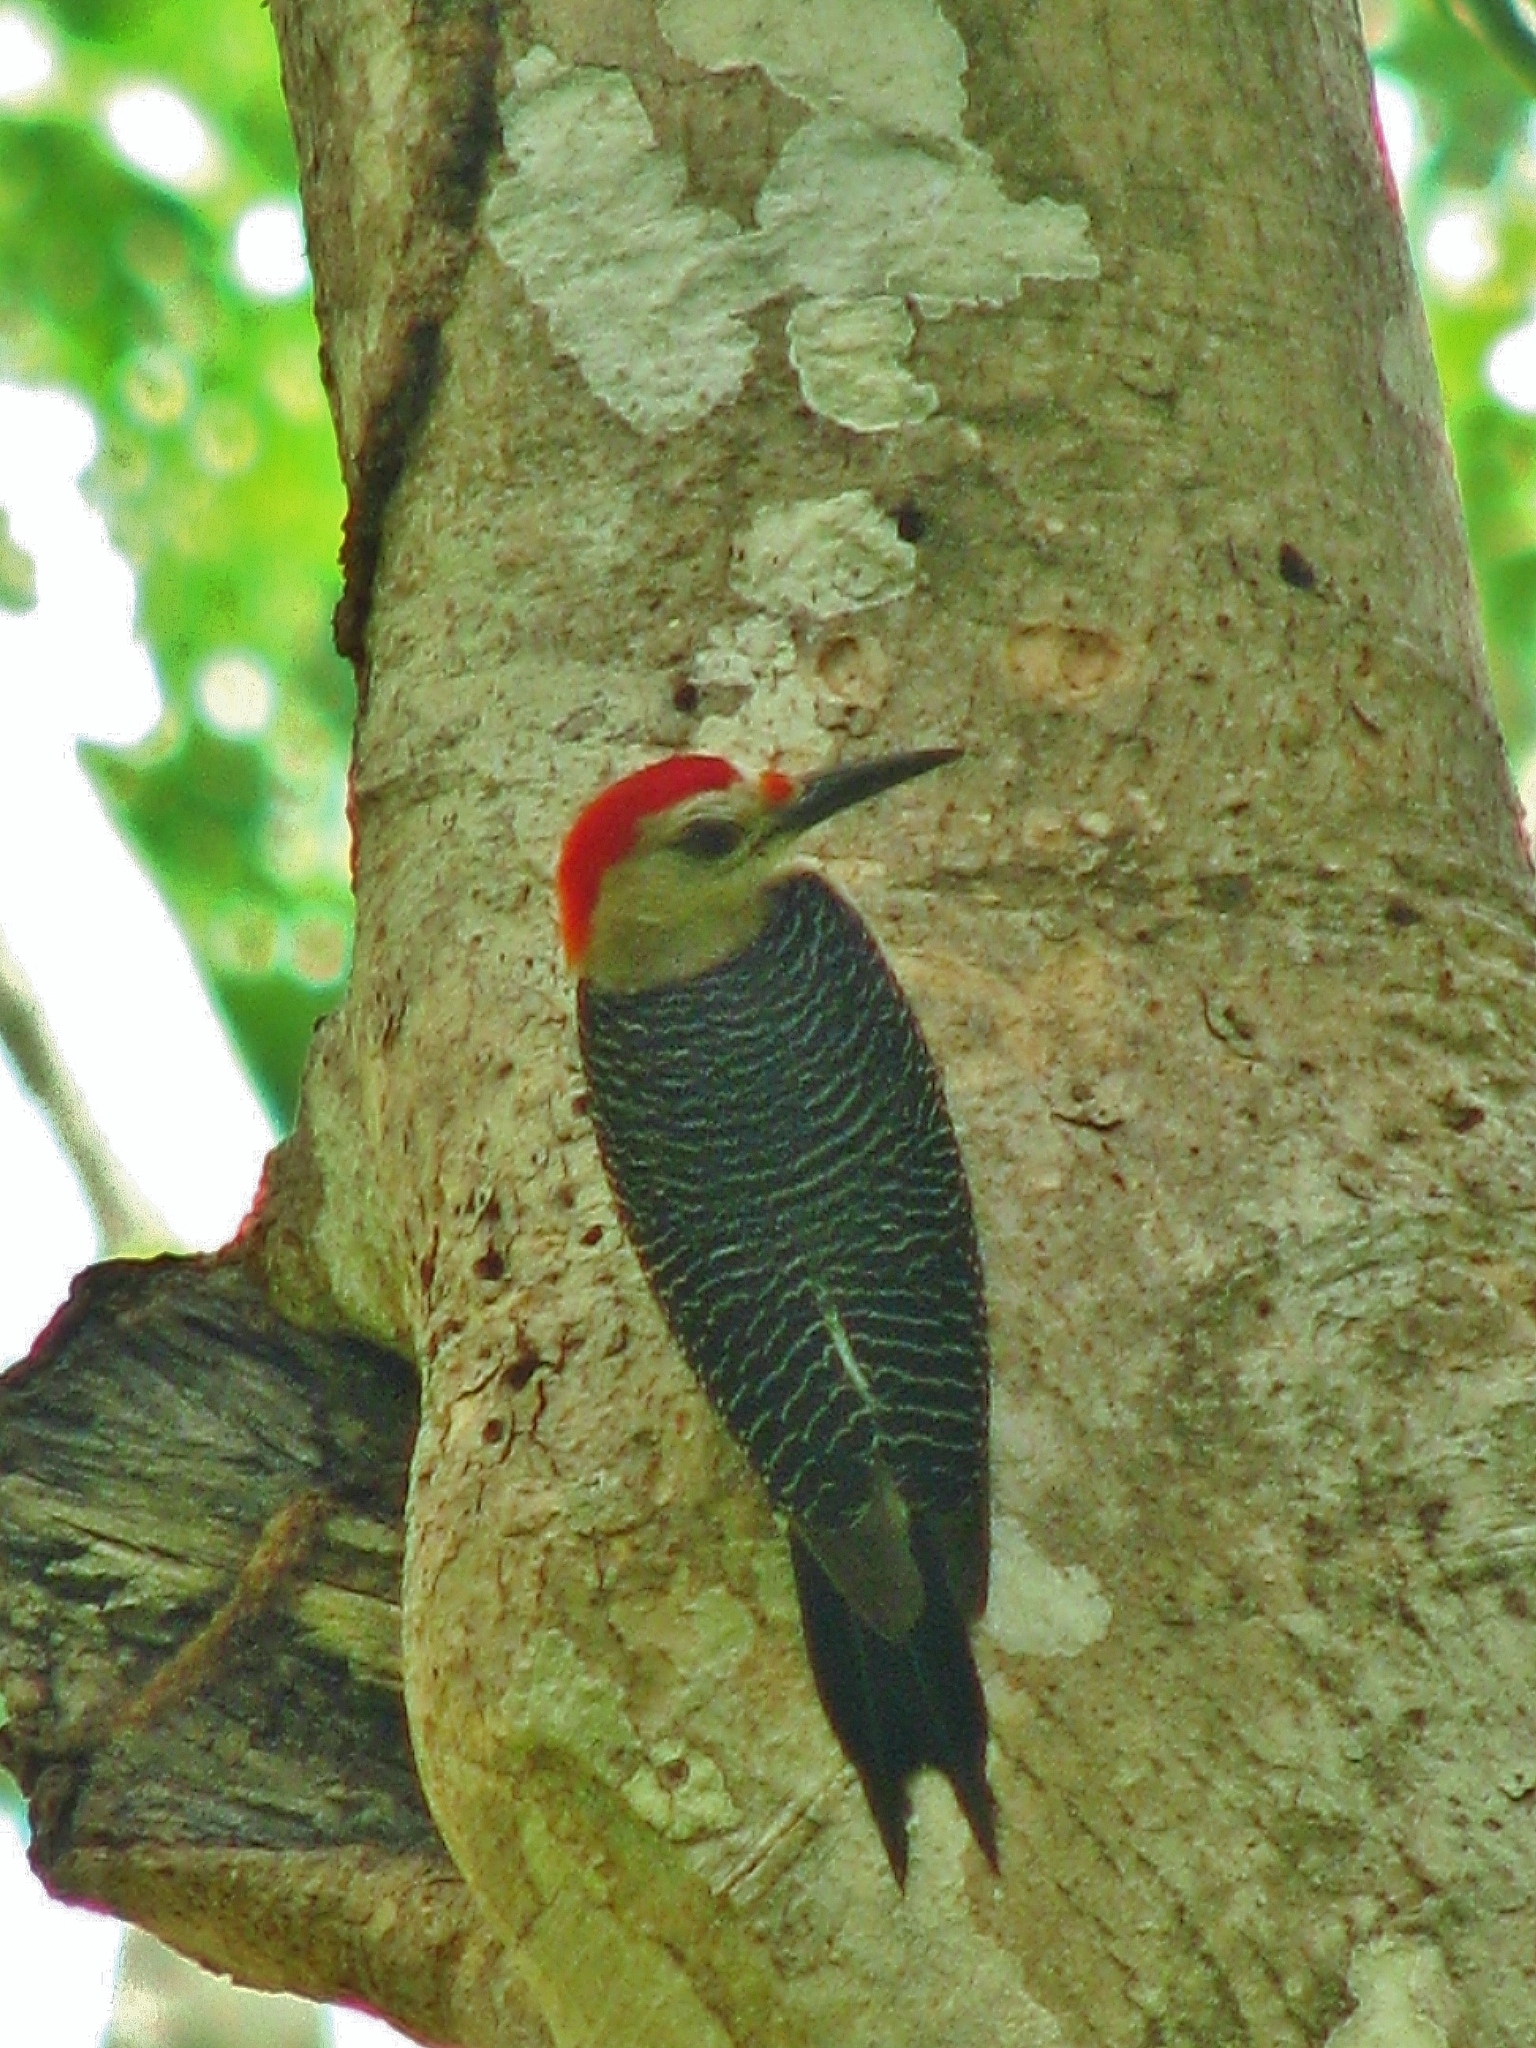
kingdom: Animalia
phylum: Chordata
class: Aves
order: Piciformes
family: Picidae
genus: Melanerpes
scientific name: Melanerpes aurifrons
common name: Golden-fronted woodpecker
